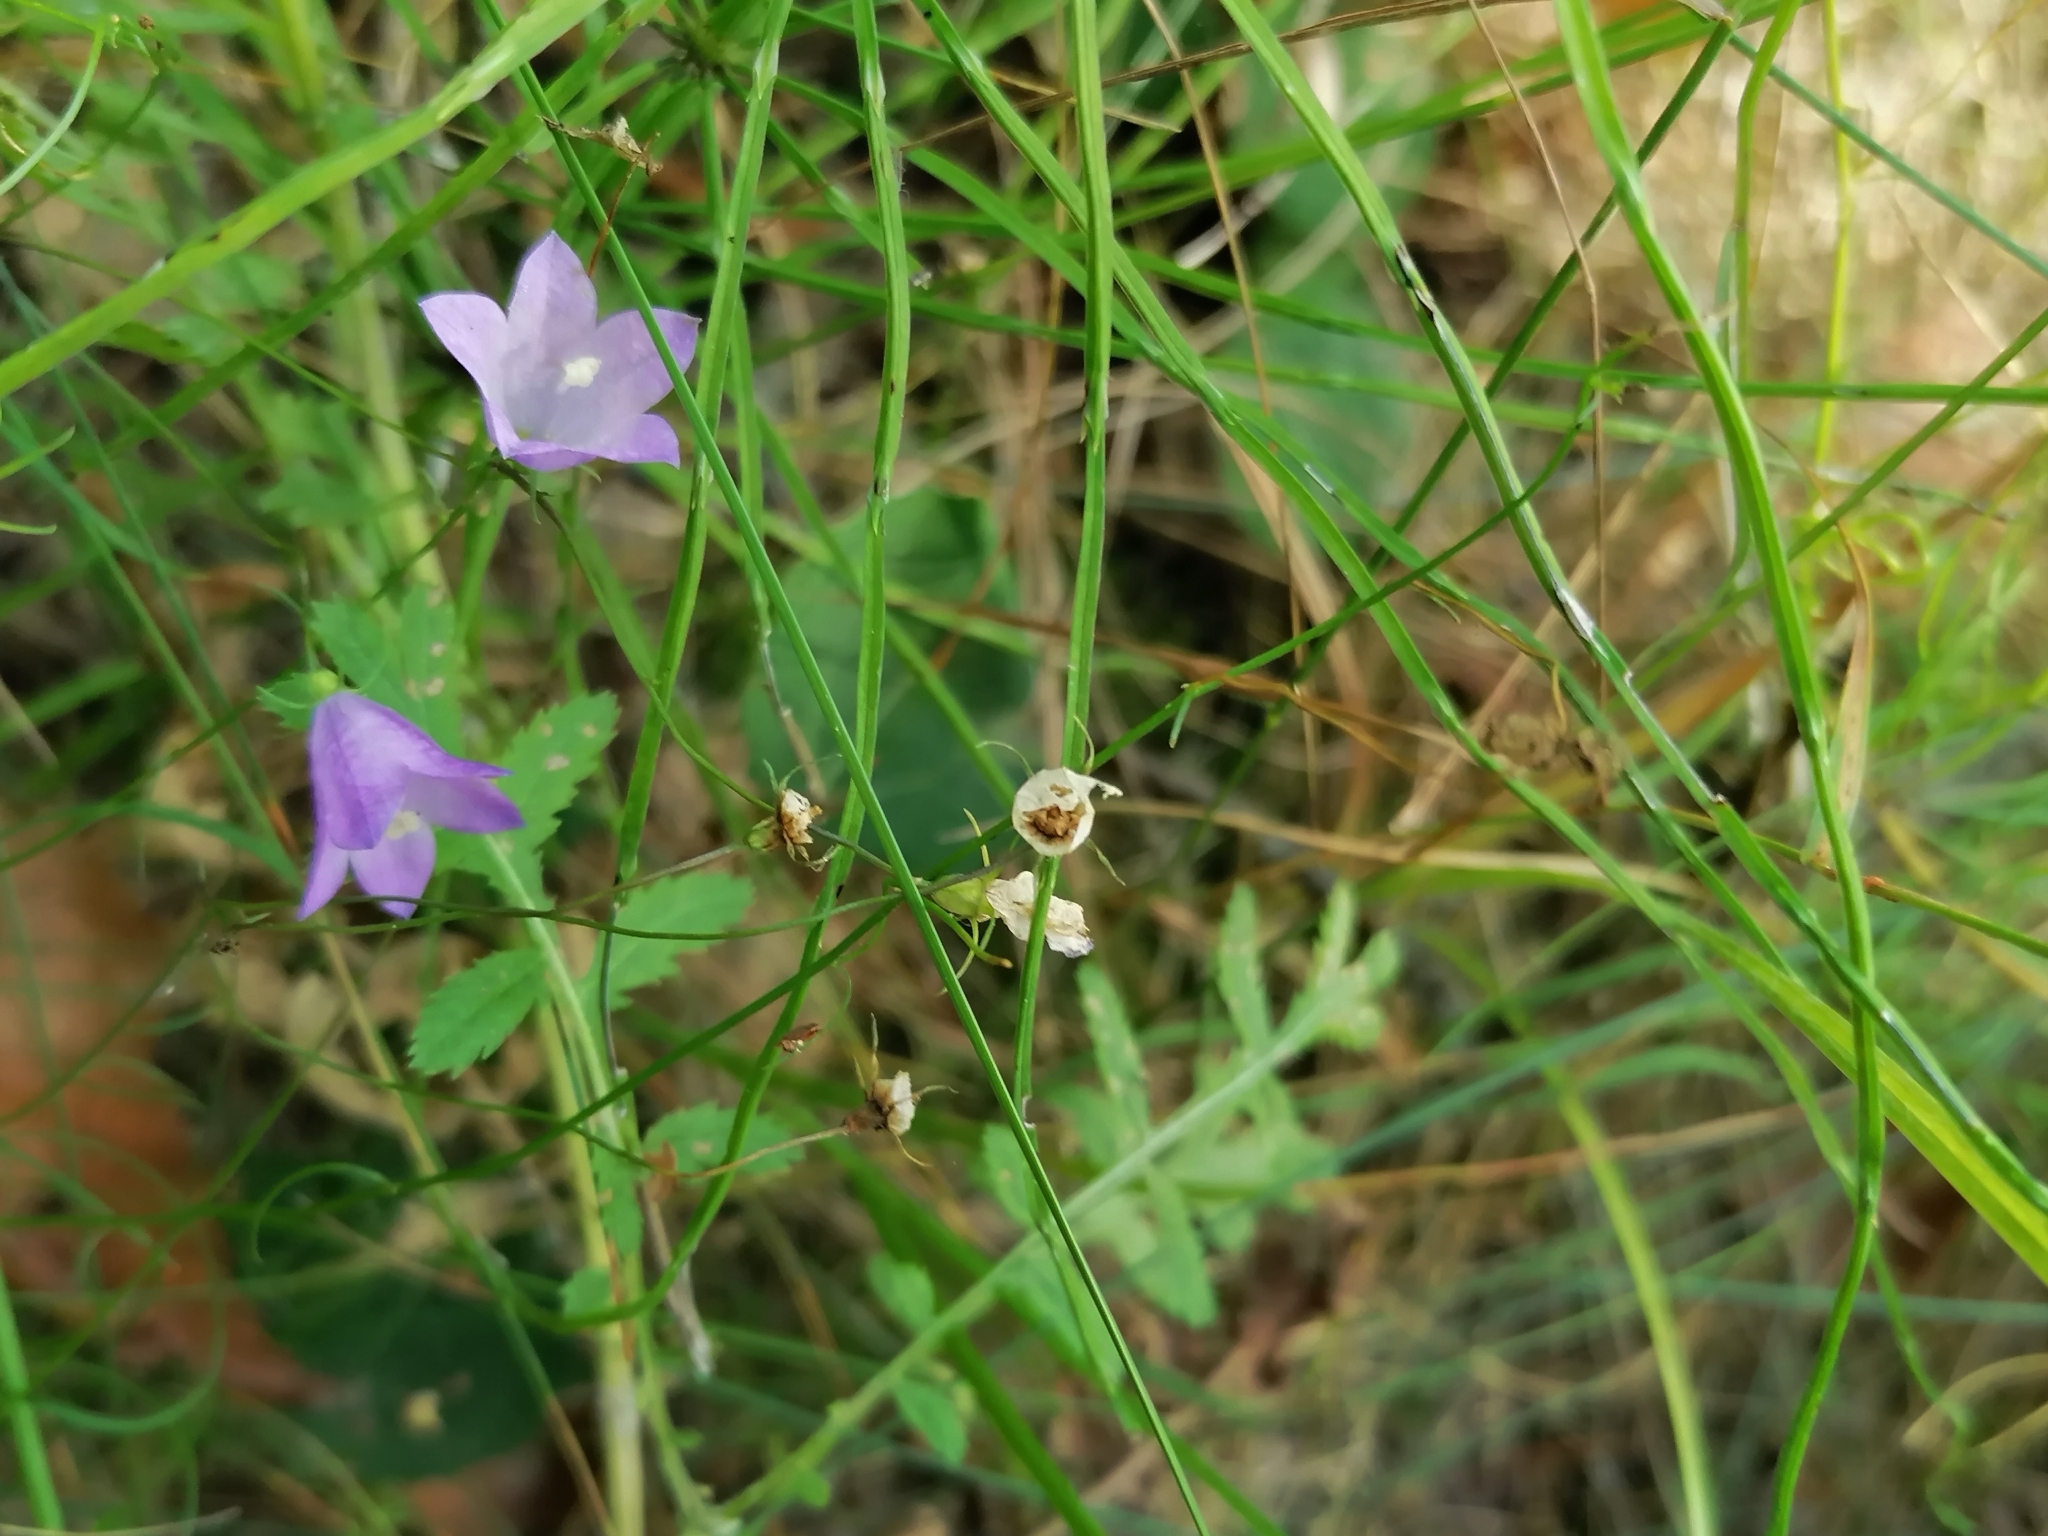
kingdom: Plantae
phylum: Tracheophyta
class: Magnoliopsida
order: Asterales
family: Campanulaceae
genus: Campanula
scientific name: Campanula rotundifolia
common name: Harebell
